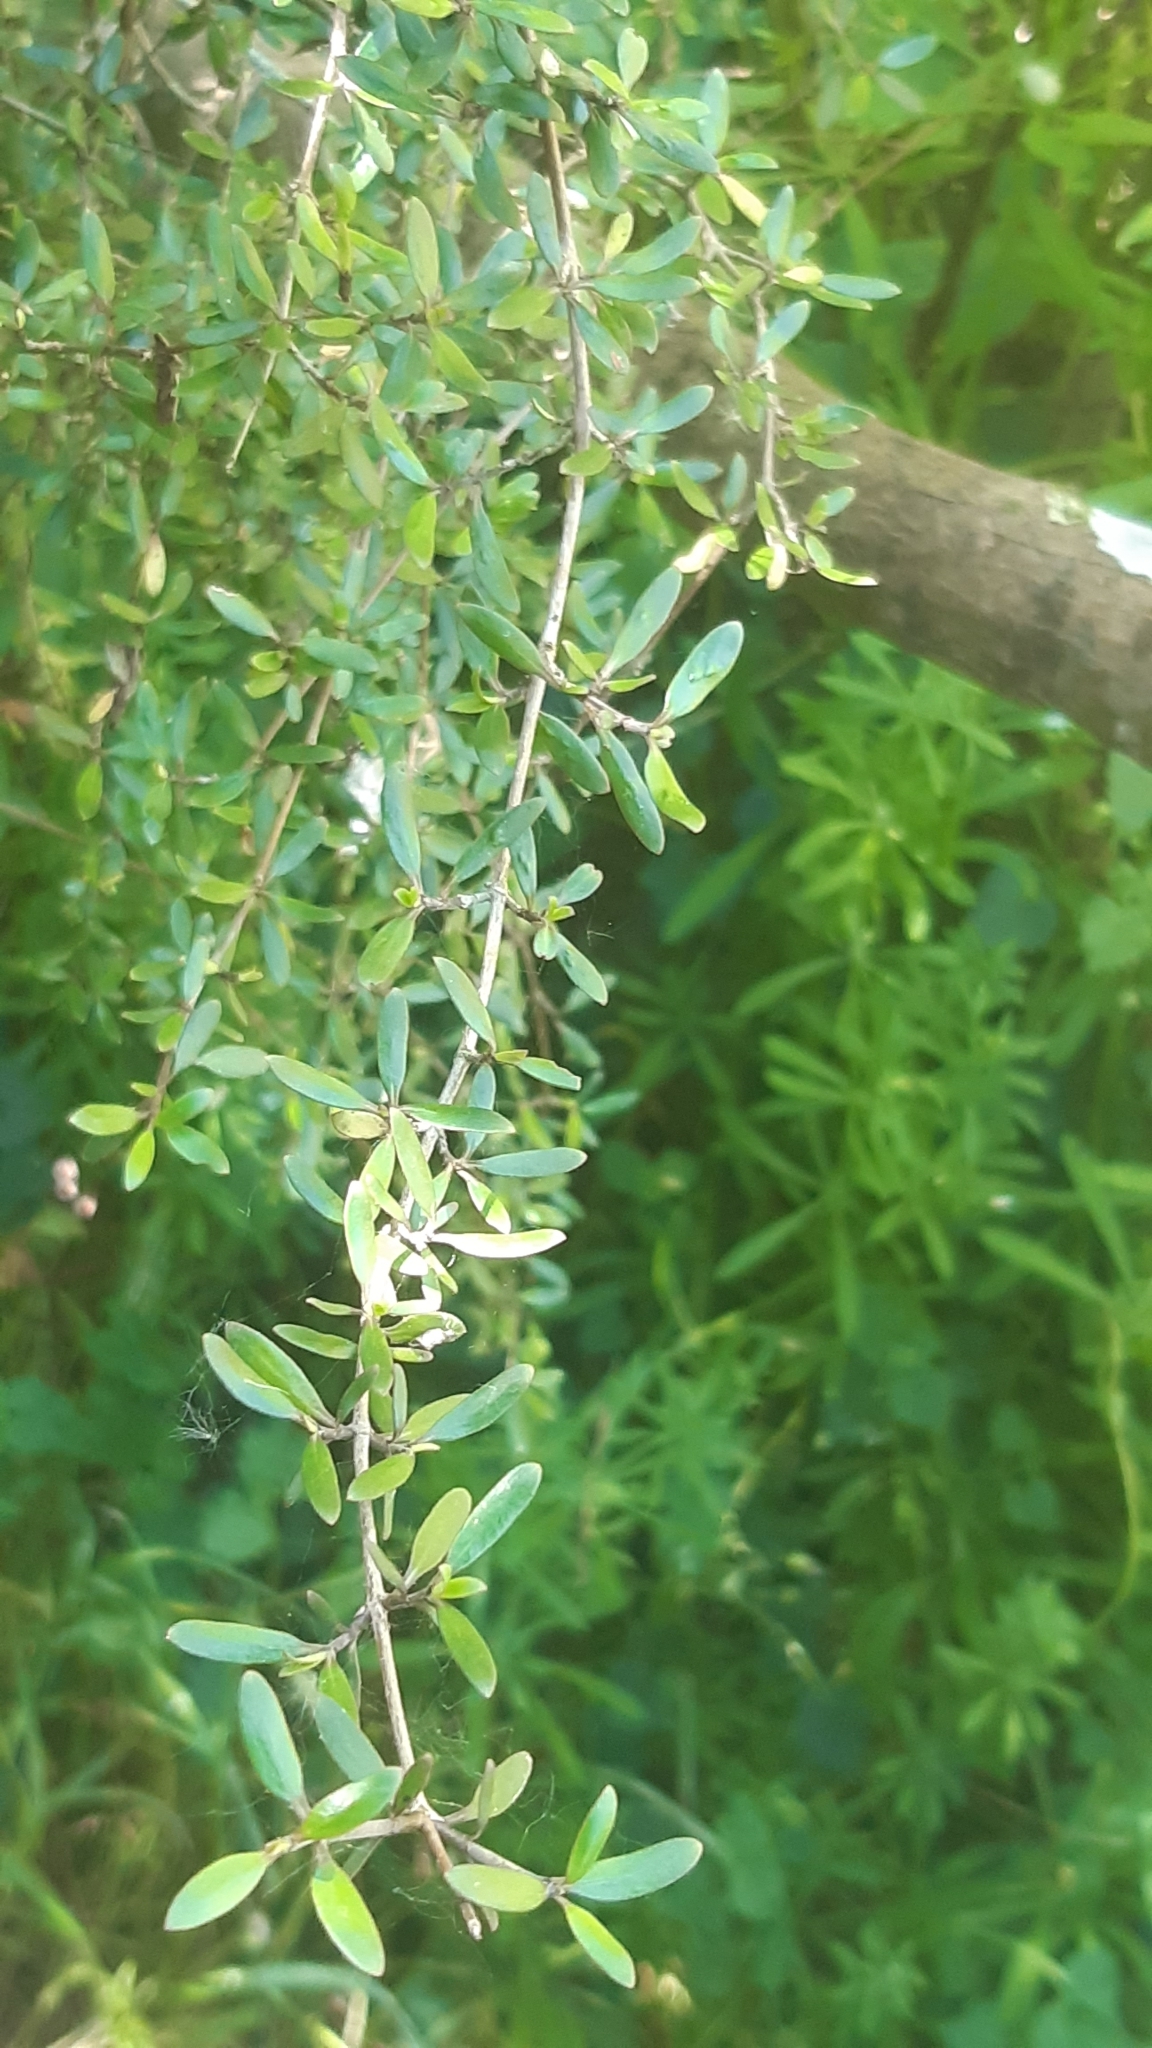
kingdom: Plantae
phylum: Tracheophyta
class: Magnoliopsida
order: Gentianales
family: Rubiaceae
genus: Coprosma
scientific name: Coprosma propinqua
